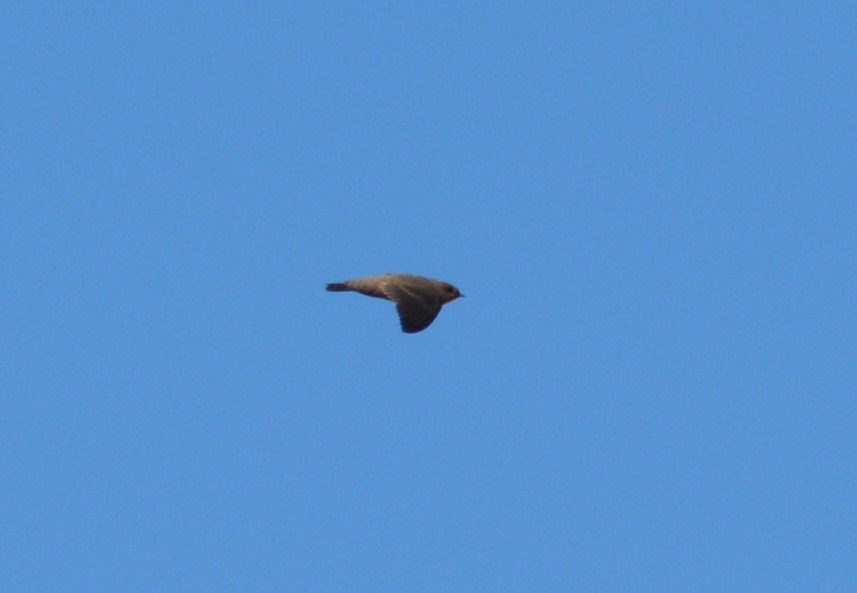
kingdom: Animalia
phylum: Chordata
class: Aves
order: Passeriformes
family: Hirundinidae
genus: Ptyonoprogne
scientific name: Ptyonoprogne fuligula
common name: Rock martin
